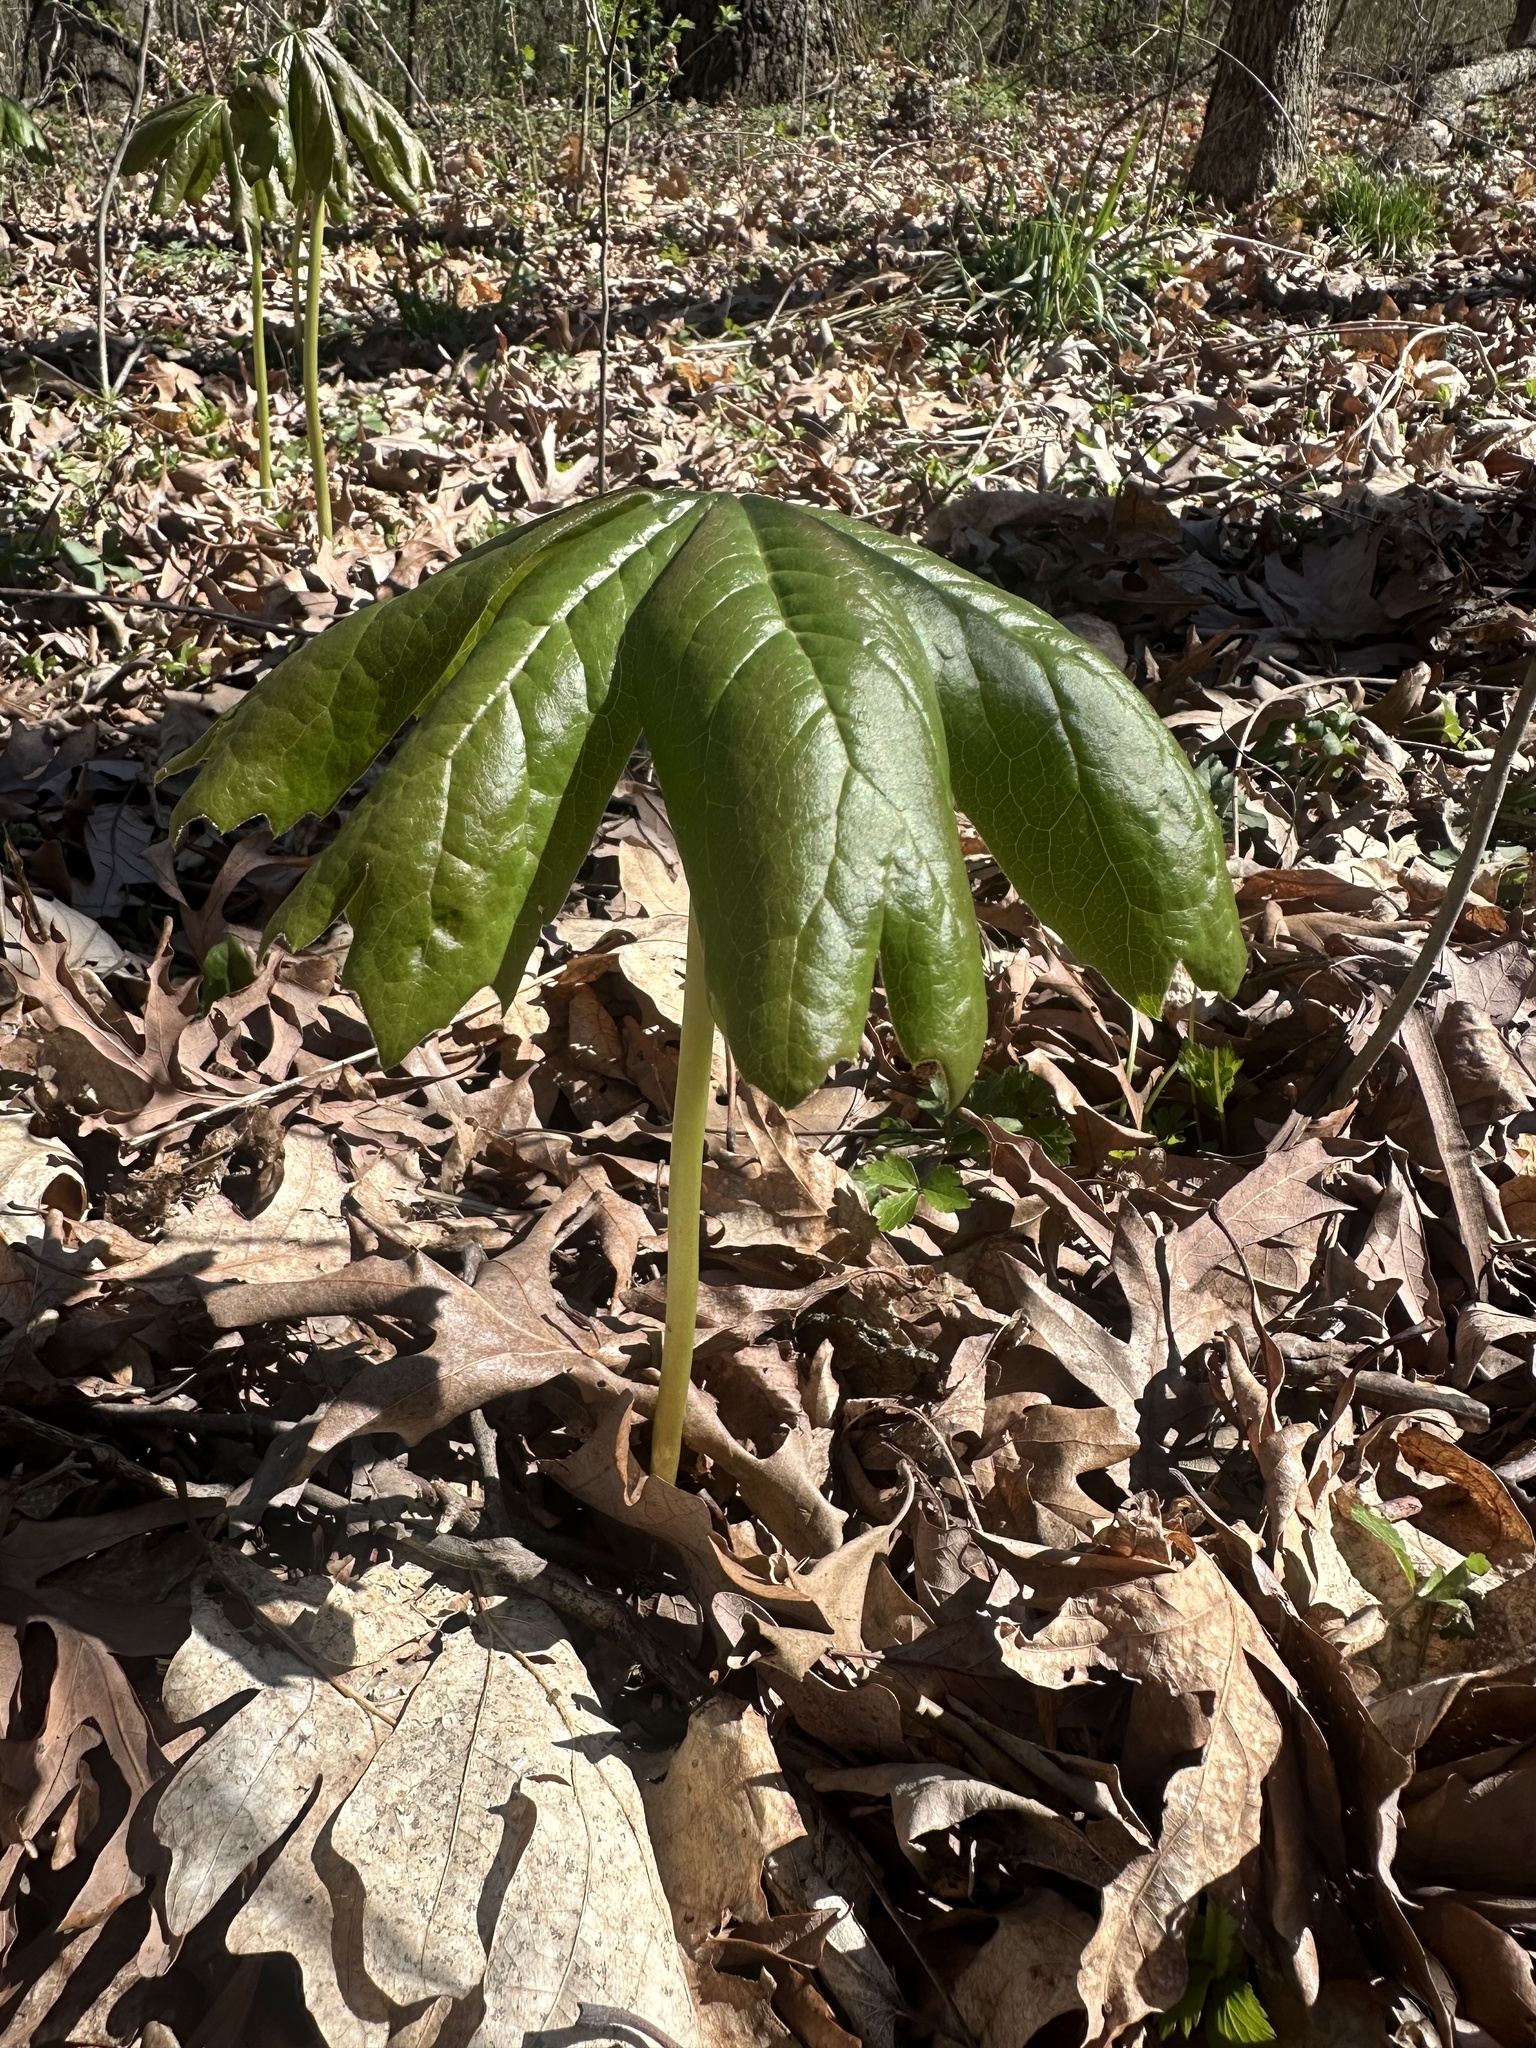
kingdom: Plantae
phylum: Tracheophyta
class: Magnoliopsida
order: Ranunculales
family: Berberidaceae
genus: Podophyllum
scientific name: Podophyllum peltatum
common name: Wild mandrake
